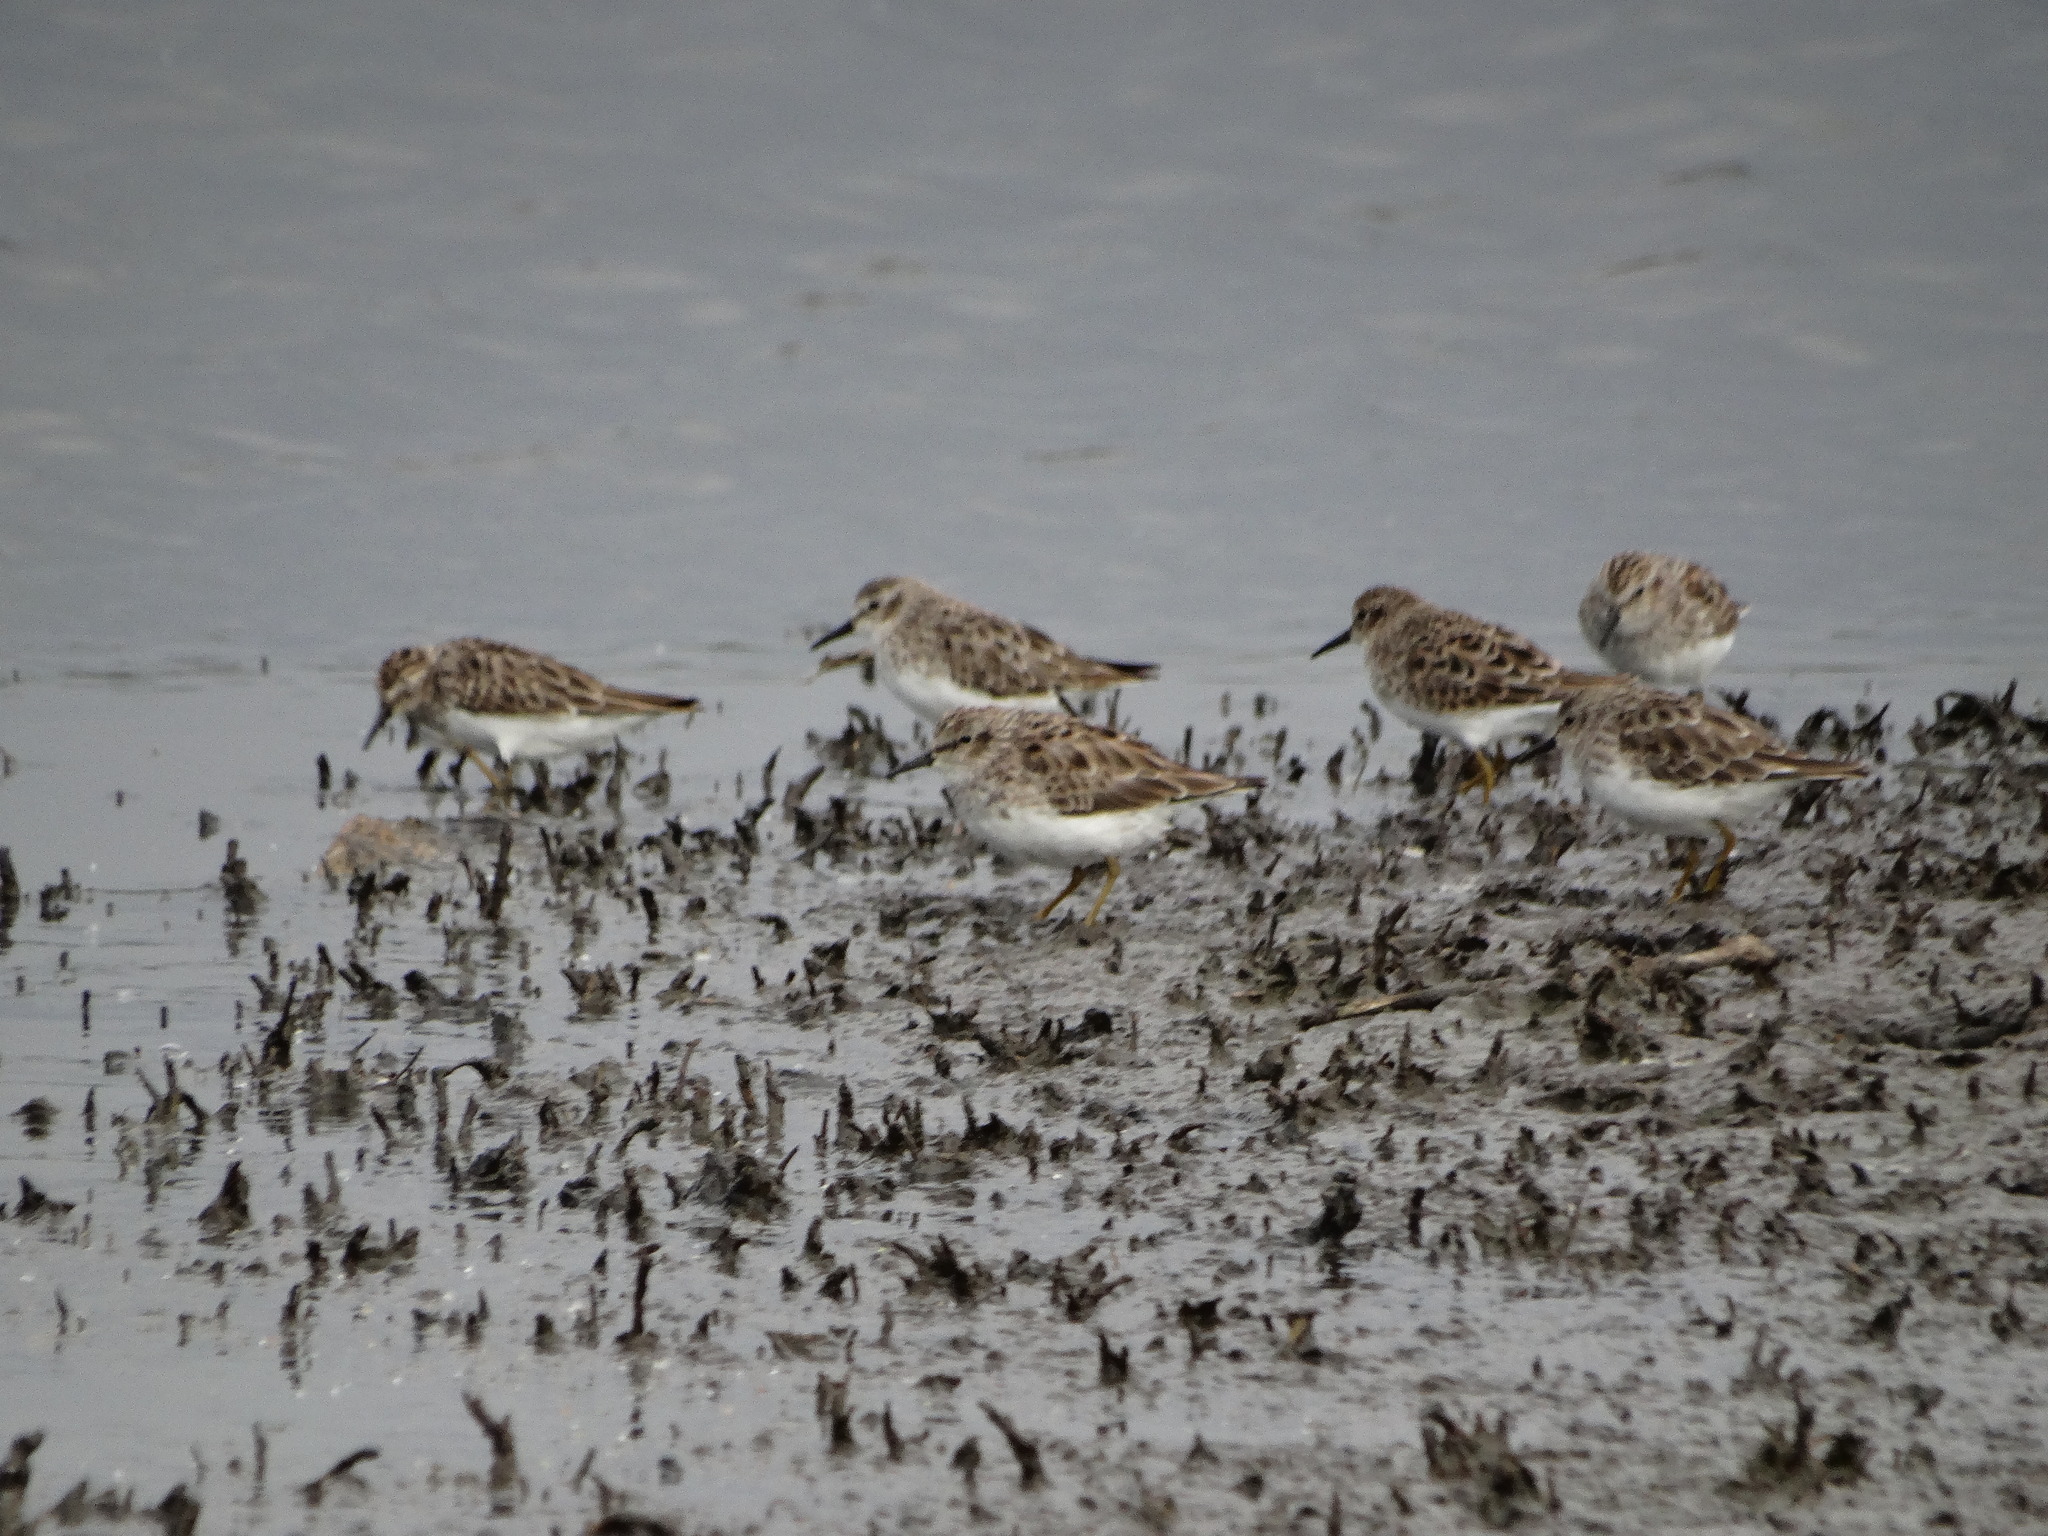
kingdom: Animalia
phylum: Chordata
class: Aves
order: Charadriiformes
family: Scolopacidae
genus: Calidris
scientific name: Calidris minutilla
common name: Least sandpiper
